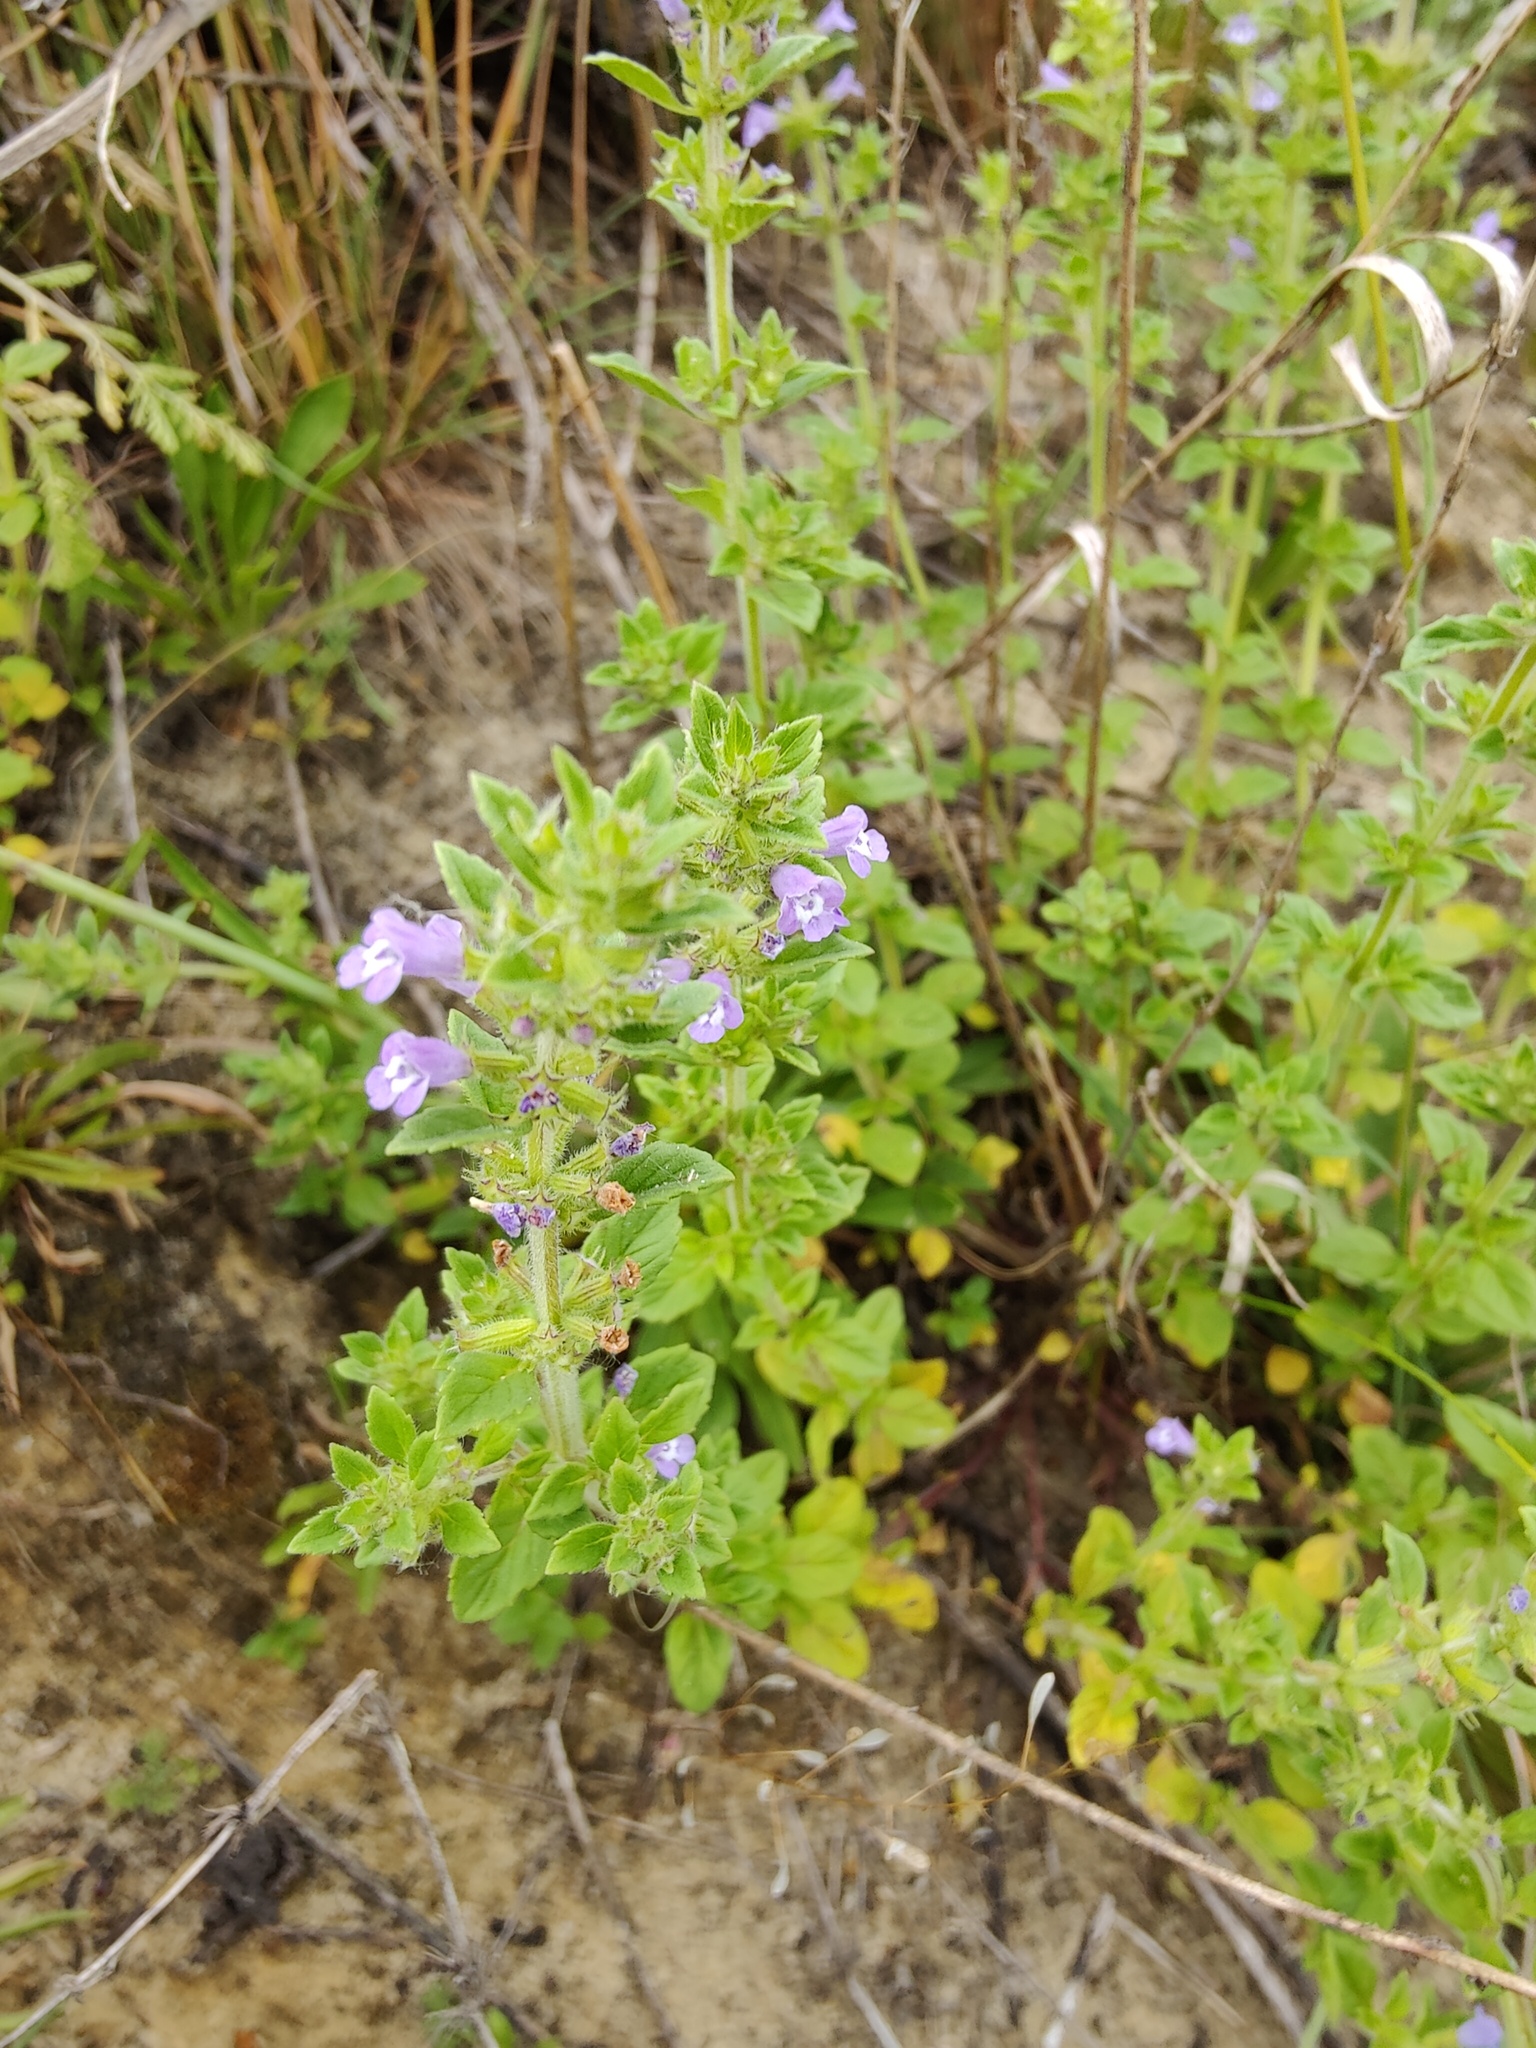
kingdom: Plantae
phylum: Tracheophyta
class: Magnoliopsida
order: Lamiales
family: Lamiaceae
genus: Clinopodium
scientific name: Clinopodium acinos
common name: Basil thyme
